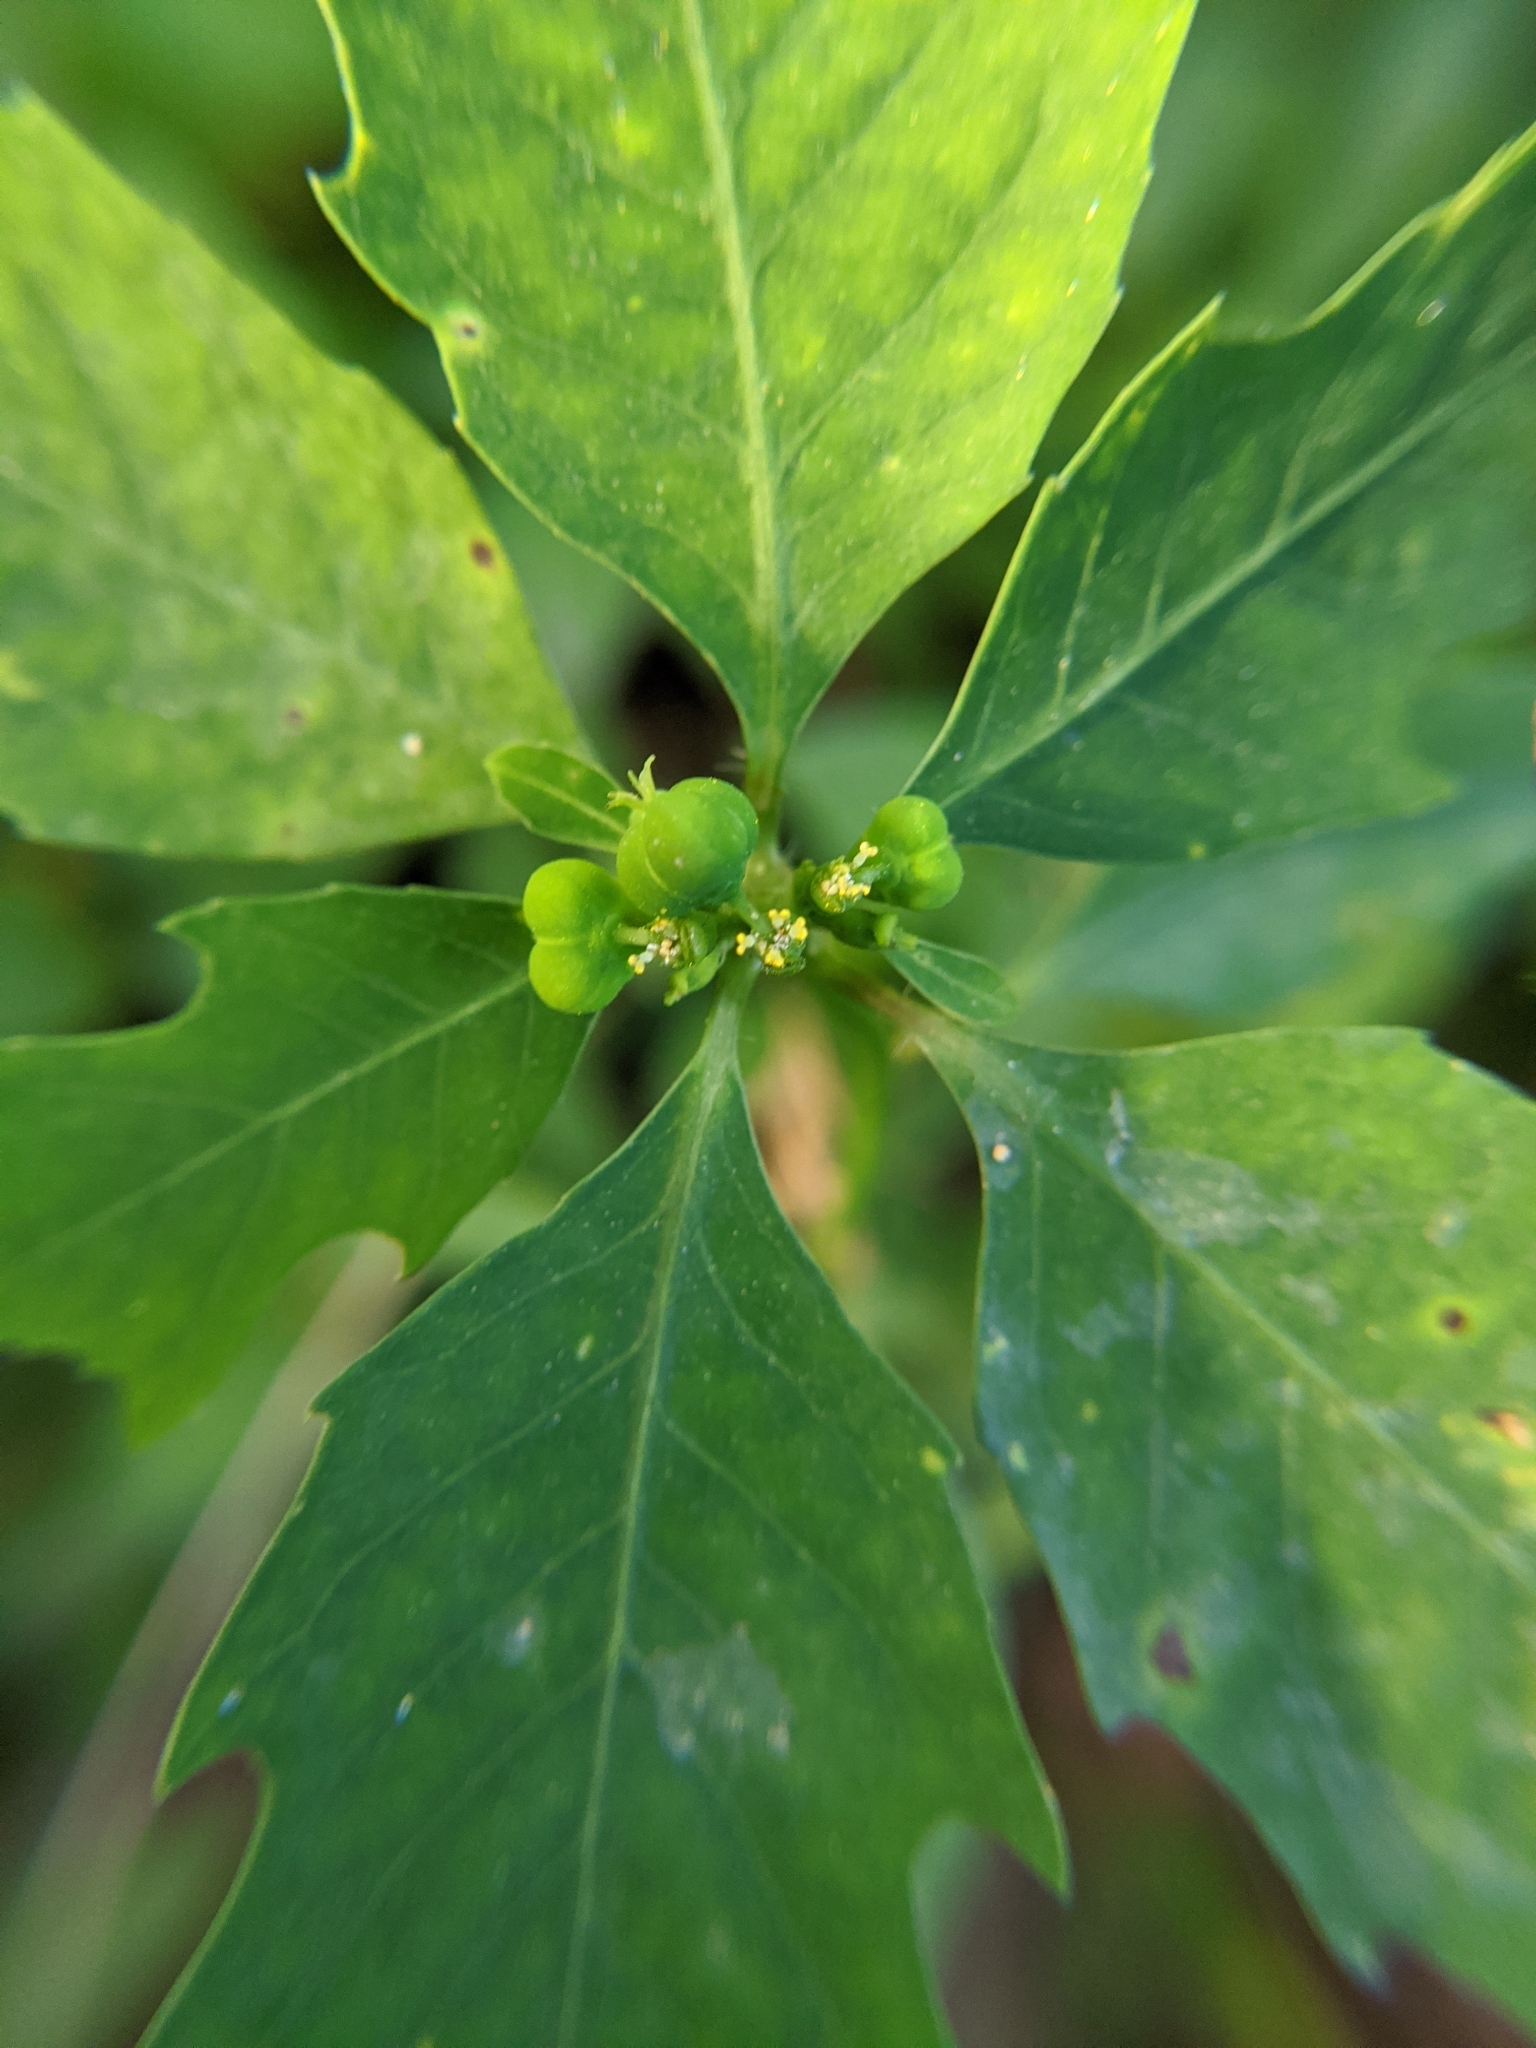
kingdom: Plantae
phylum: Tracheophyta
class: Magnoliopsida
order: Malpighiales
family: Euphorbiaceae
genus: Euphorbia
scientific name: Euphorbia heterophylla
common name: Mexican fireplant
